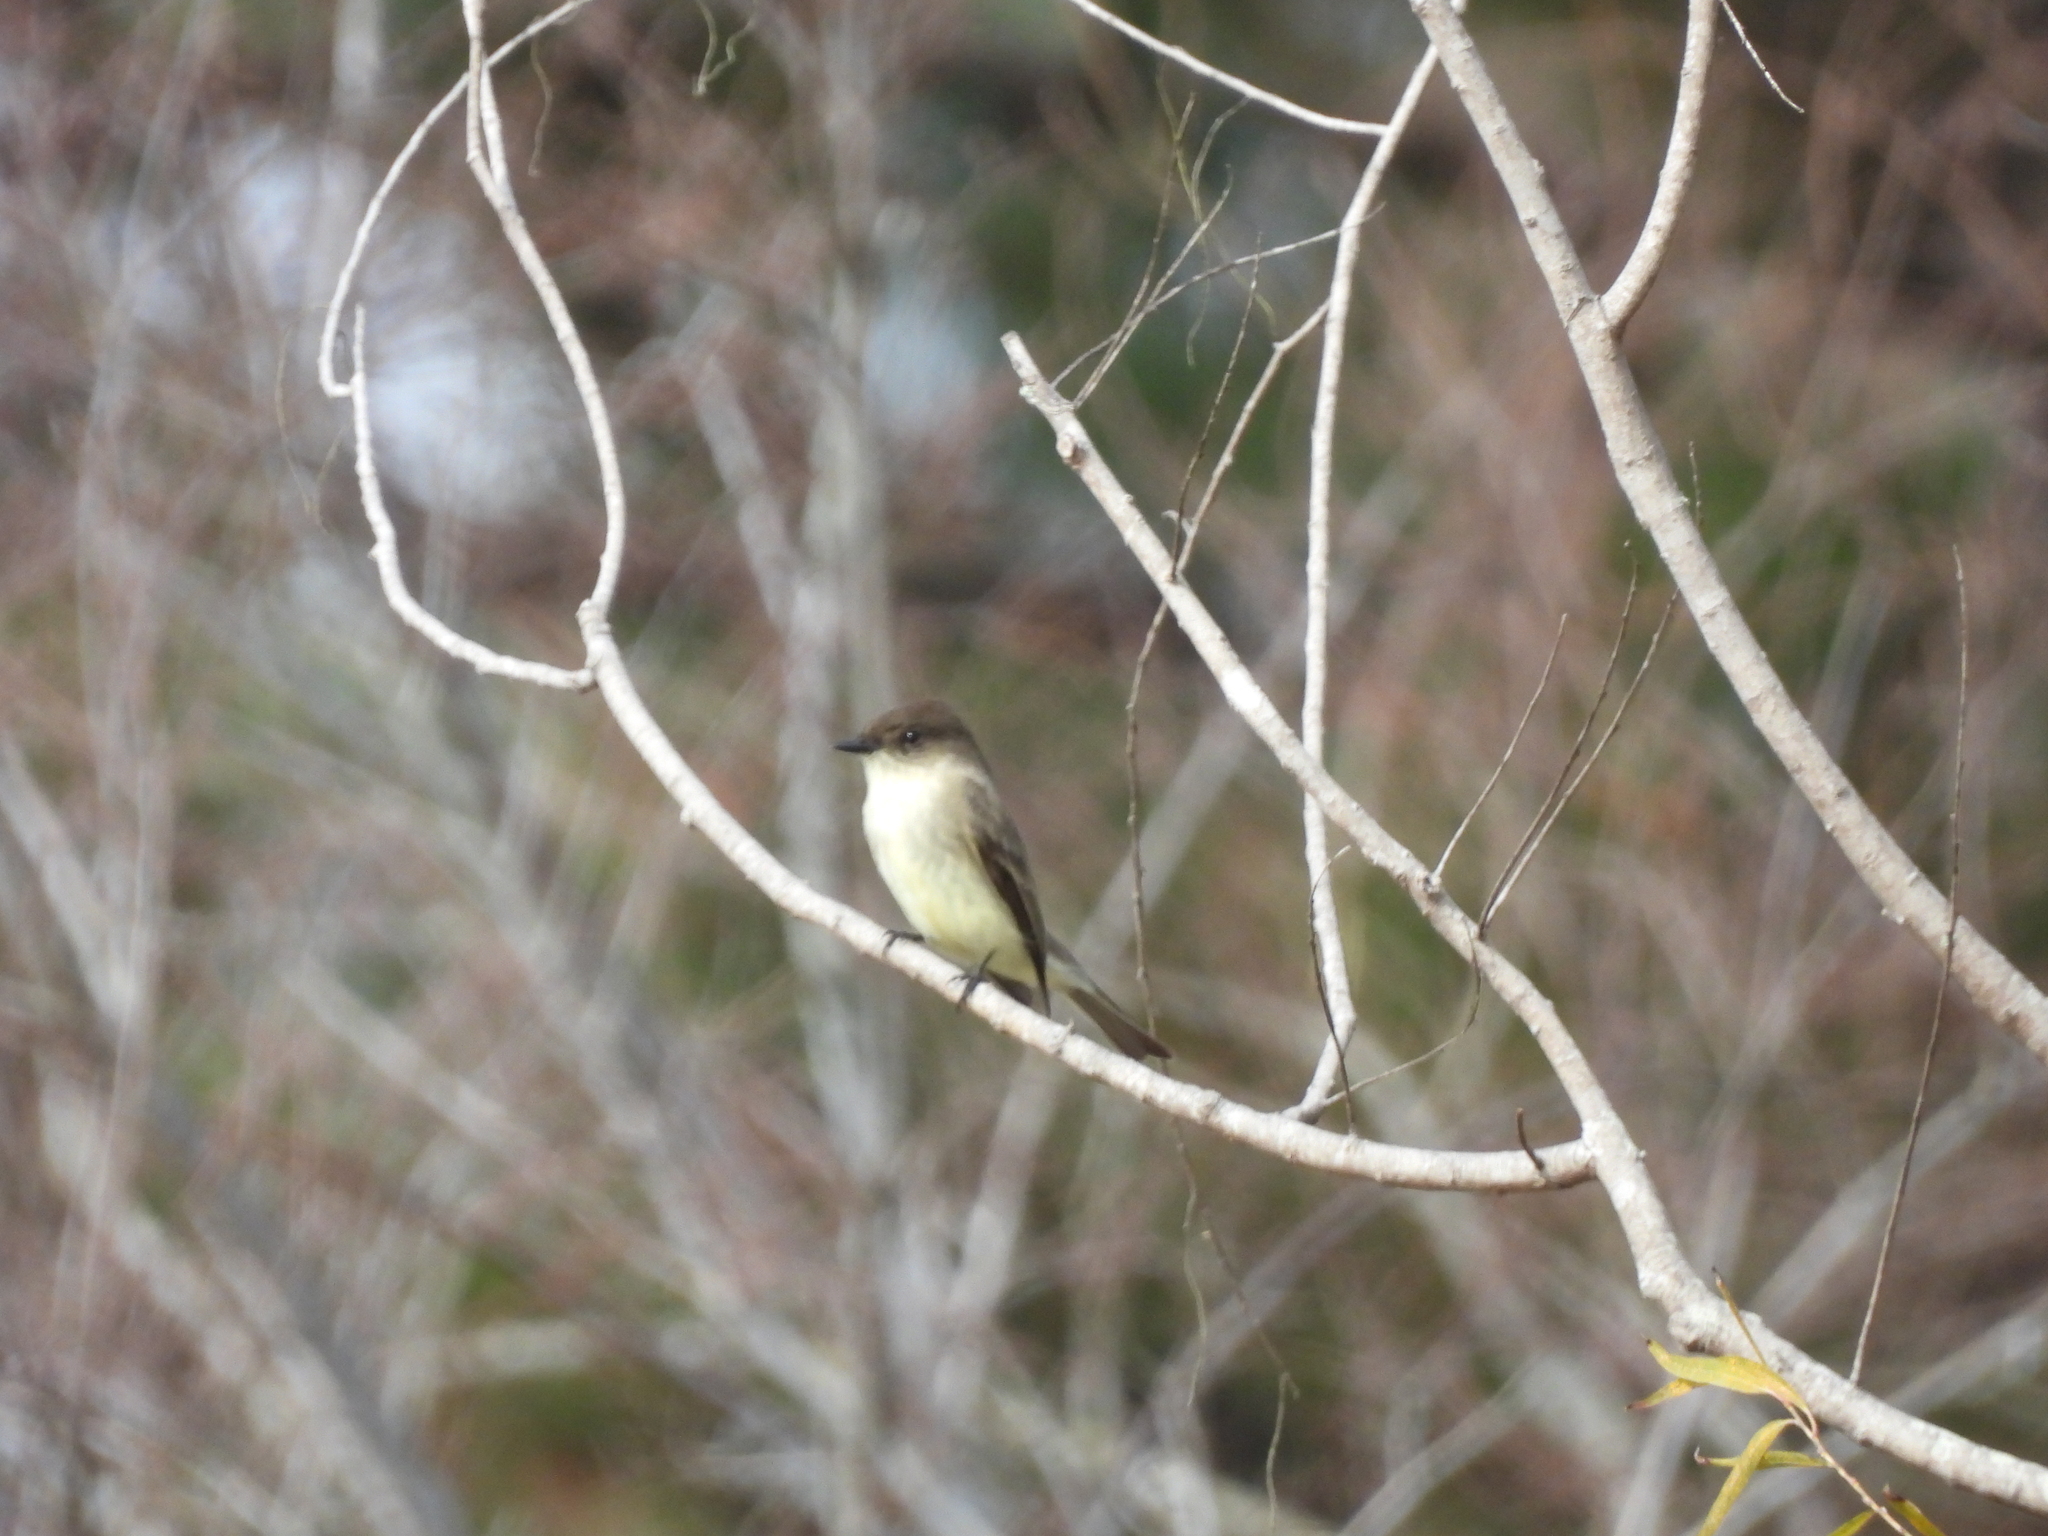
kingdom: Animalia
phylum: Chordata
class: Aves
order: Passeriformes
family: Tyrannidae
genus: Sayornis
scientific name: Sayornis phoebe
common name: Eastern phoebe
